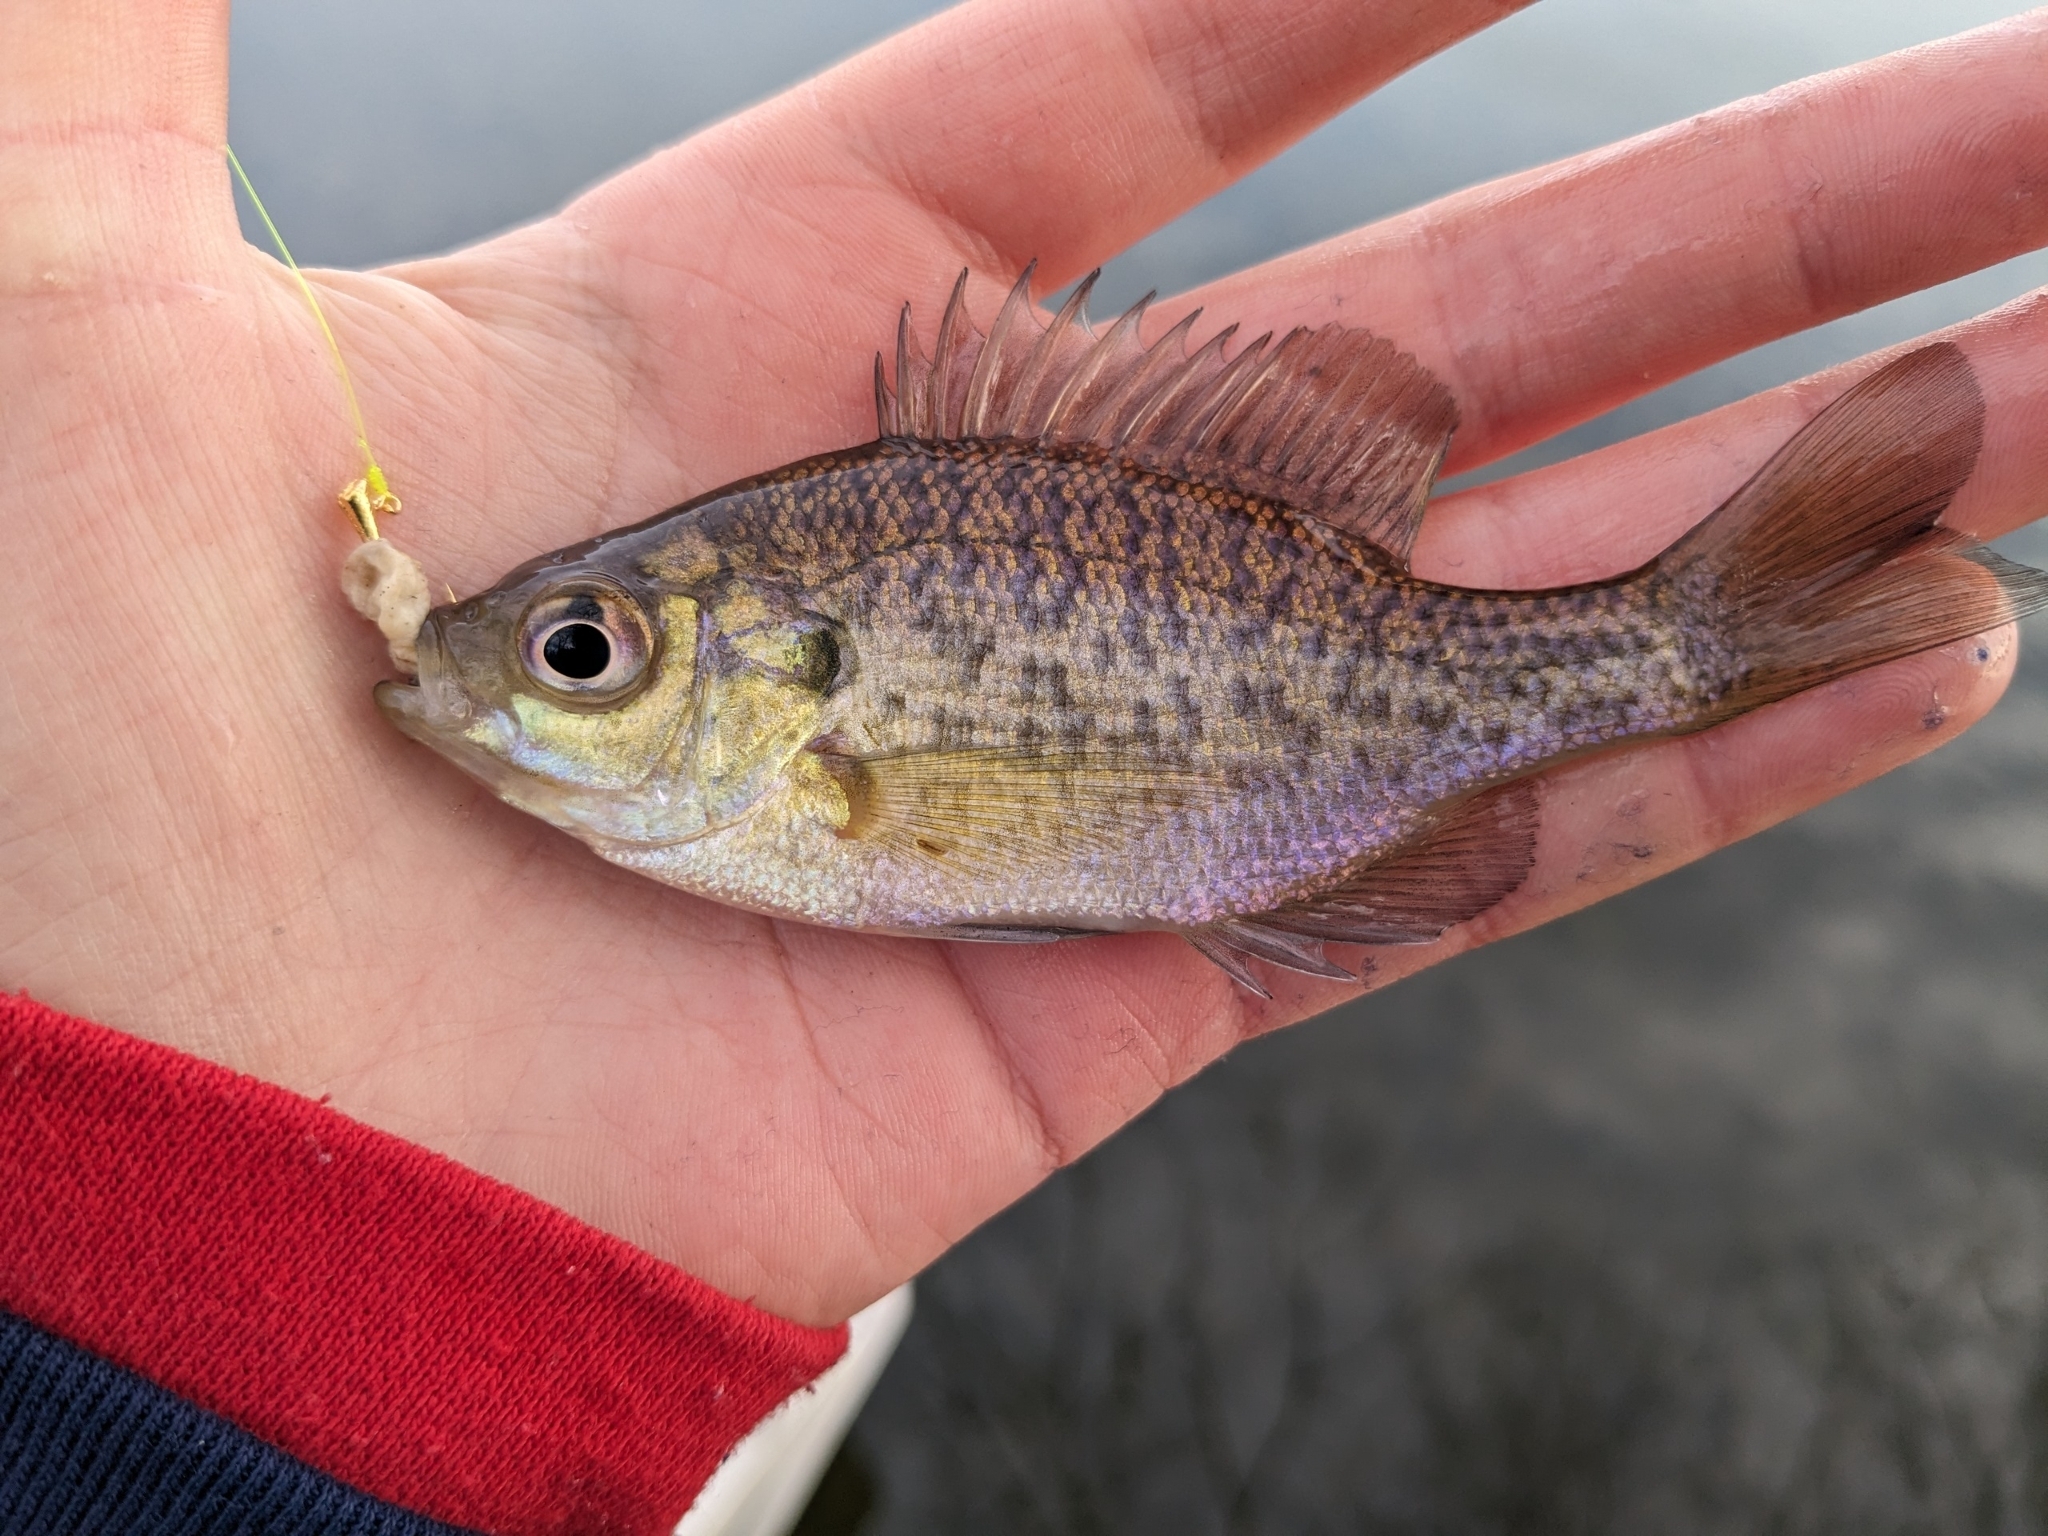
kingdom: Animalia
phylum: Chordata
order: Perciformes
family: Centrarchidae
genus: Lepomis
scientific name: Lepomis macrochirus
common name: Bluegill
